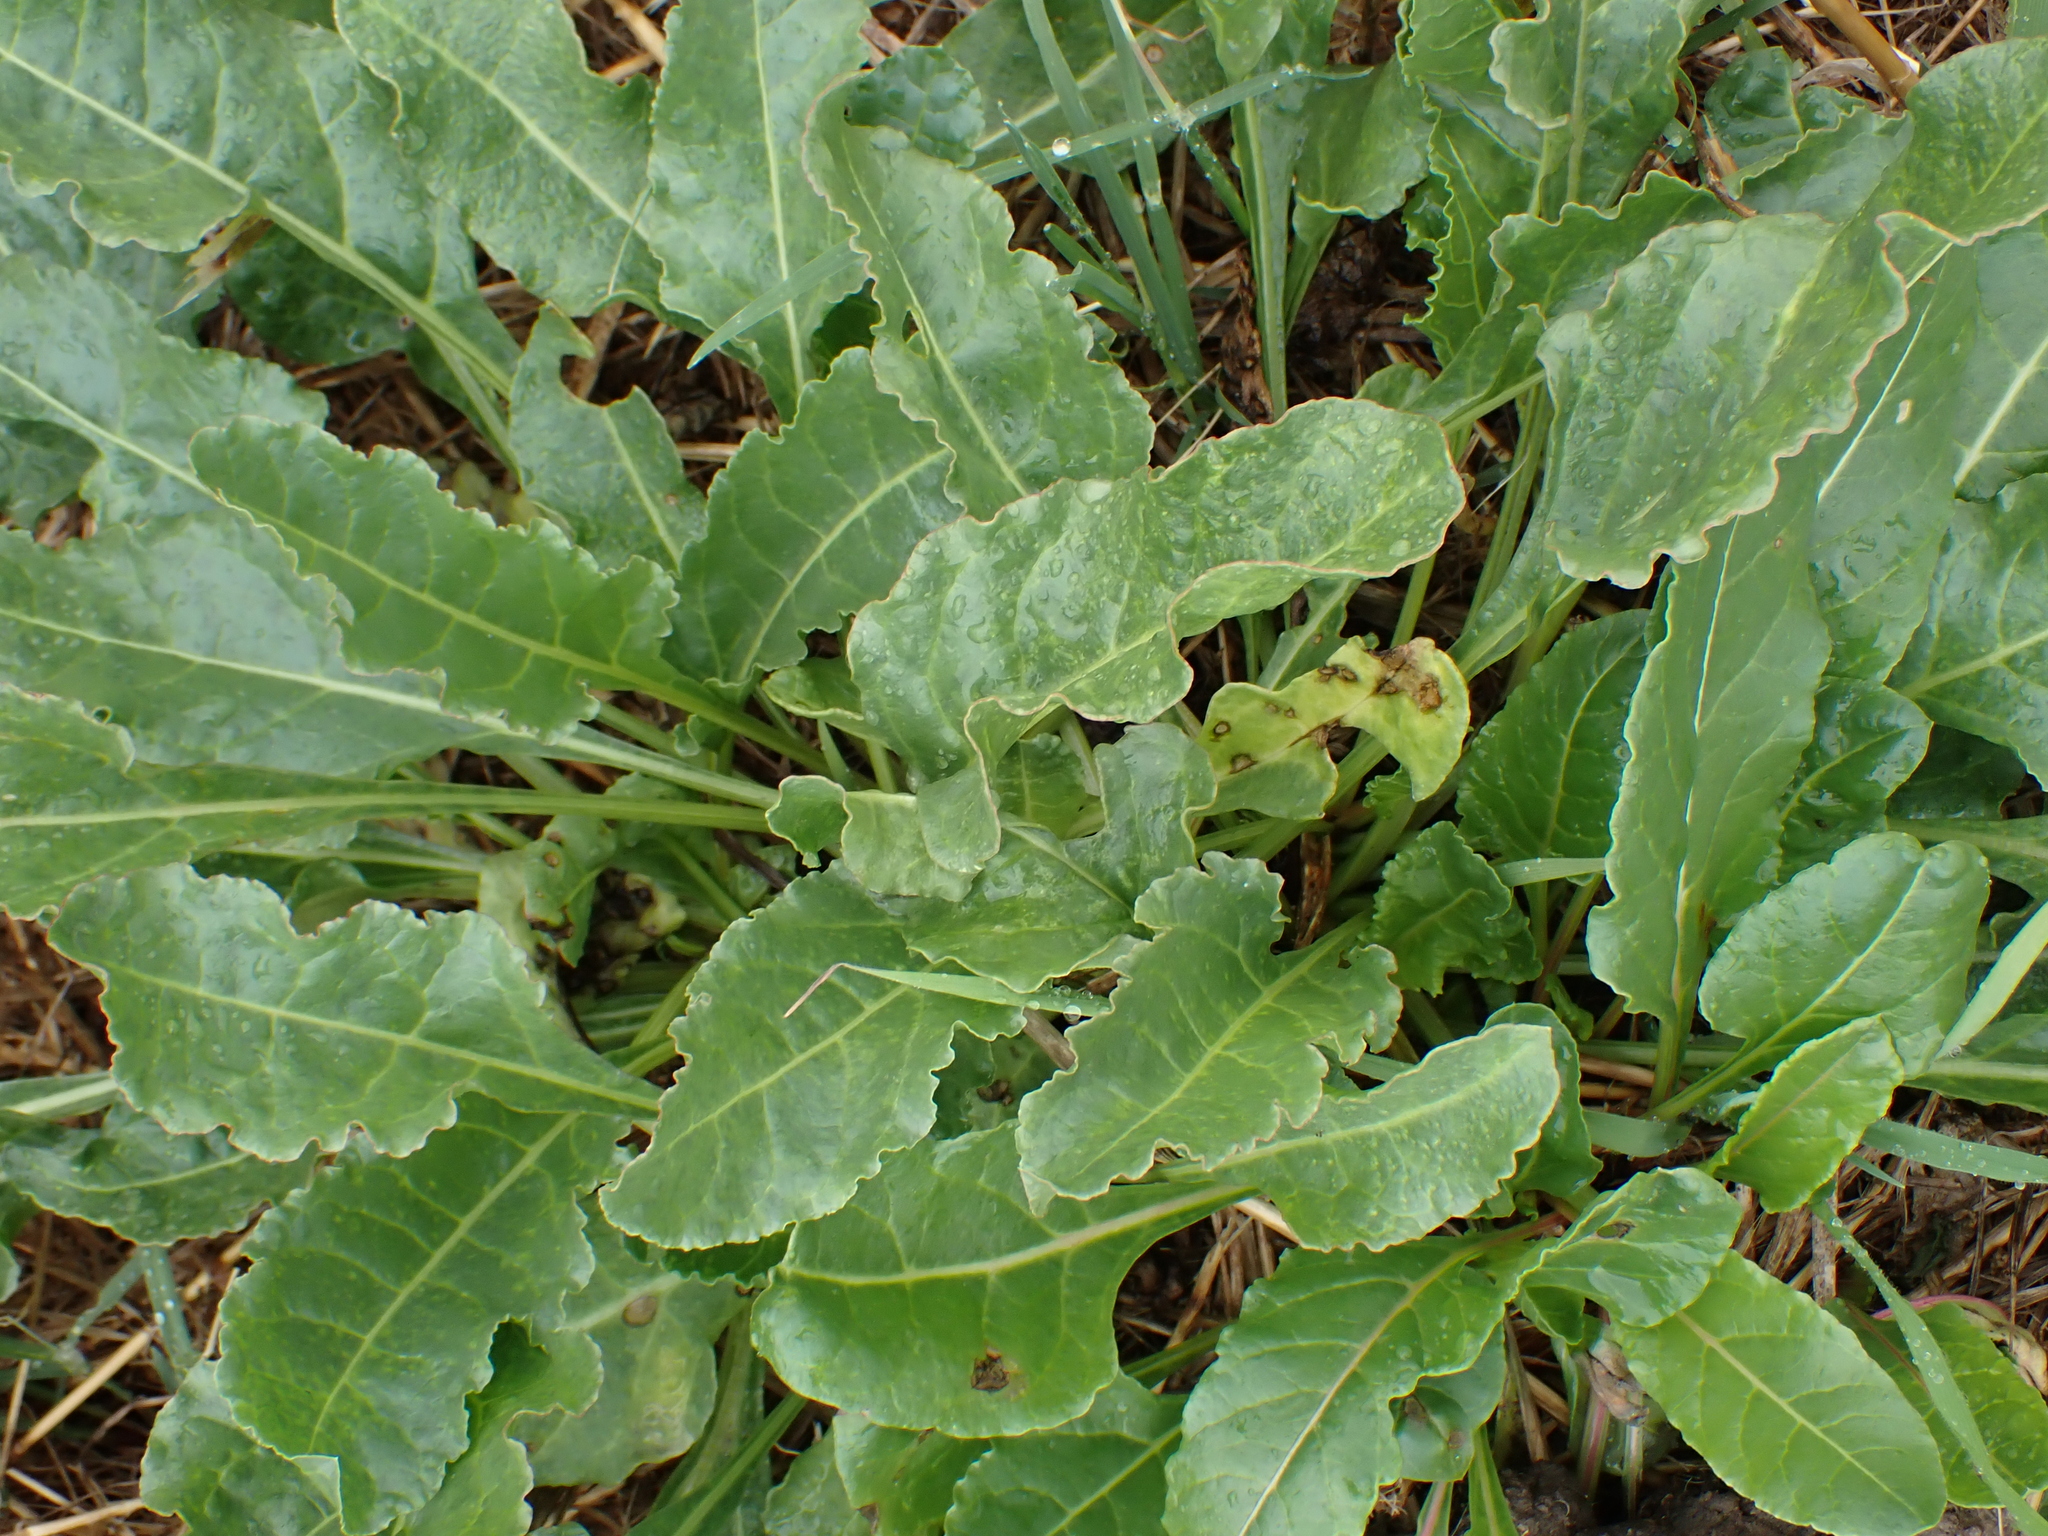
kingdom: Plantae
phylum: Tracheophyta
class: Magnoliopsida
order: Caryophyllales
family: Amaranthaceae
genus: Beta
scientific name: Beta vulgaris
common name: Beet
